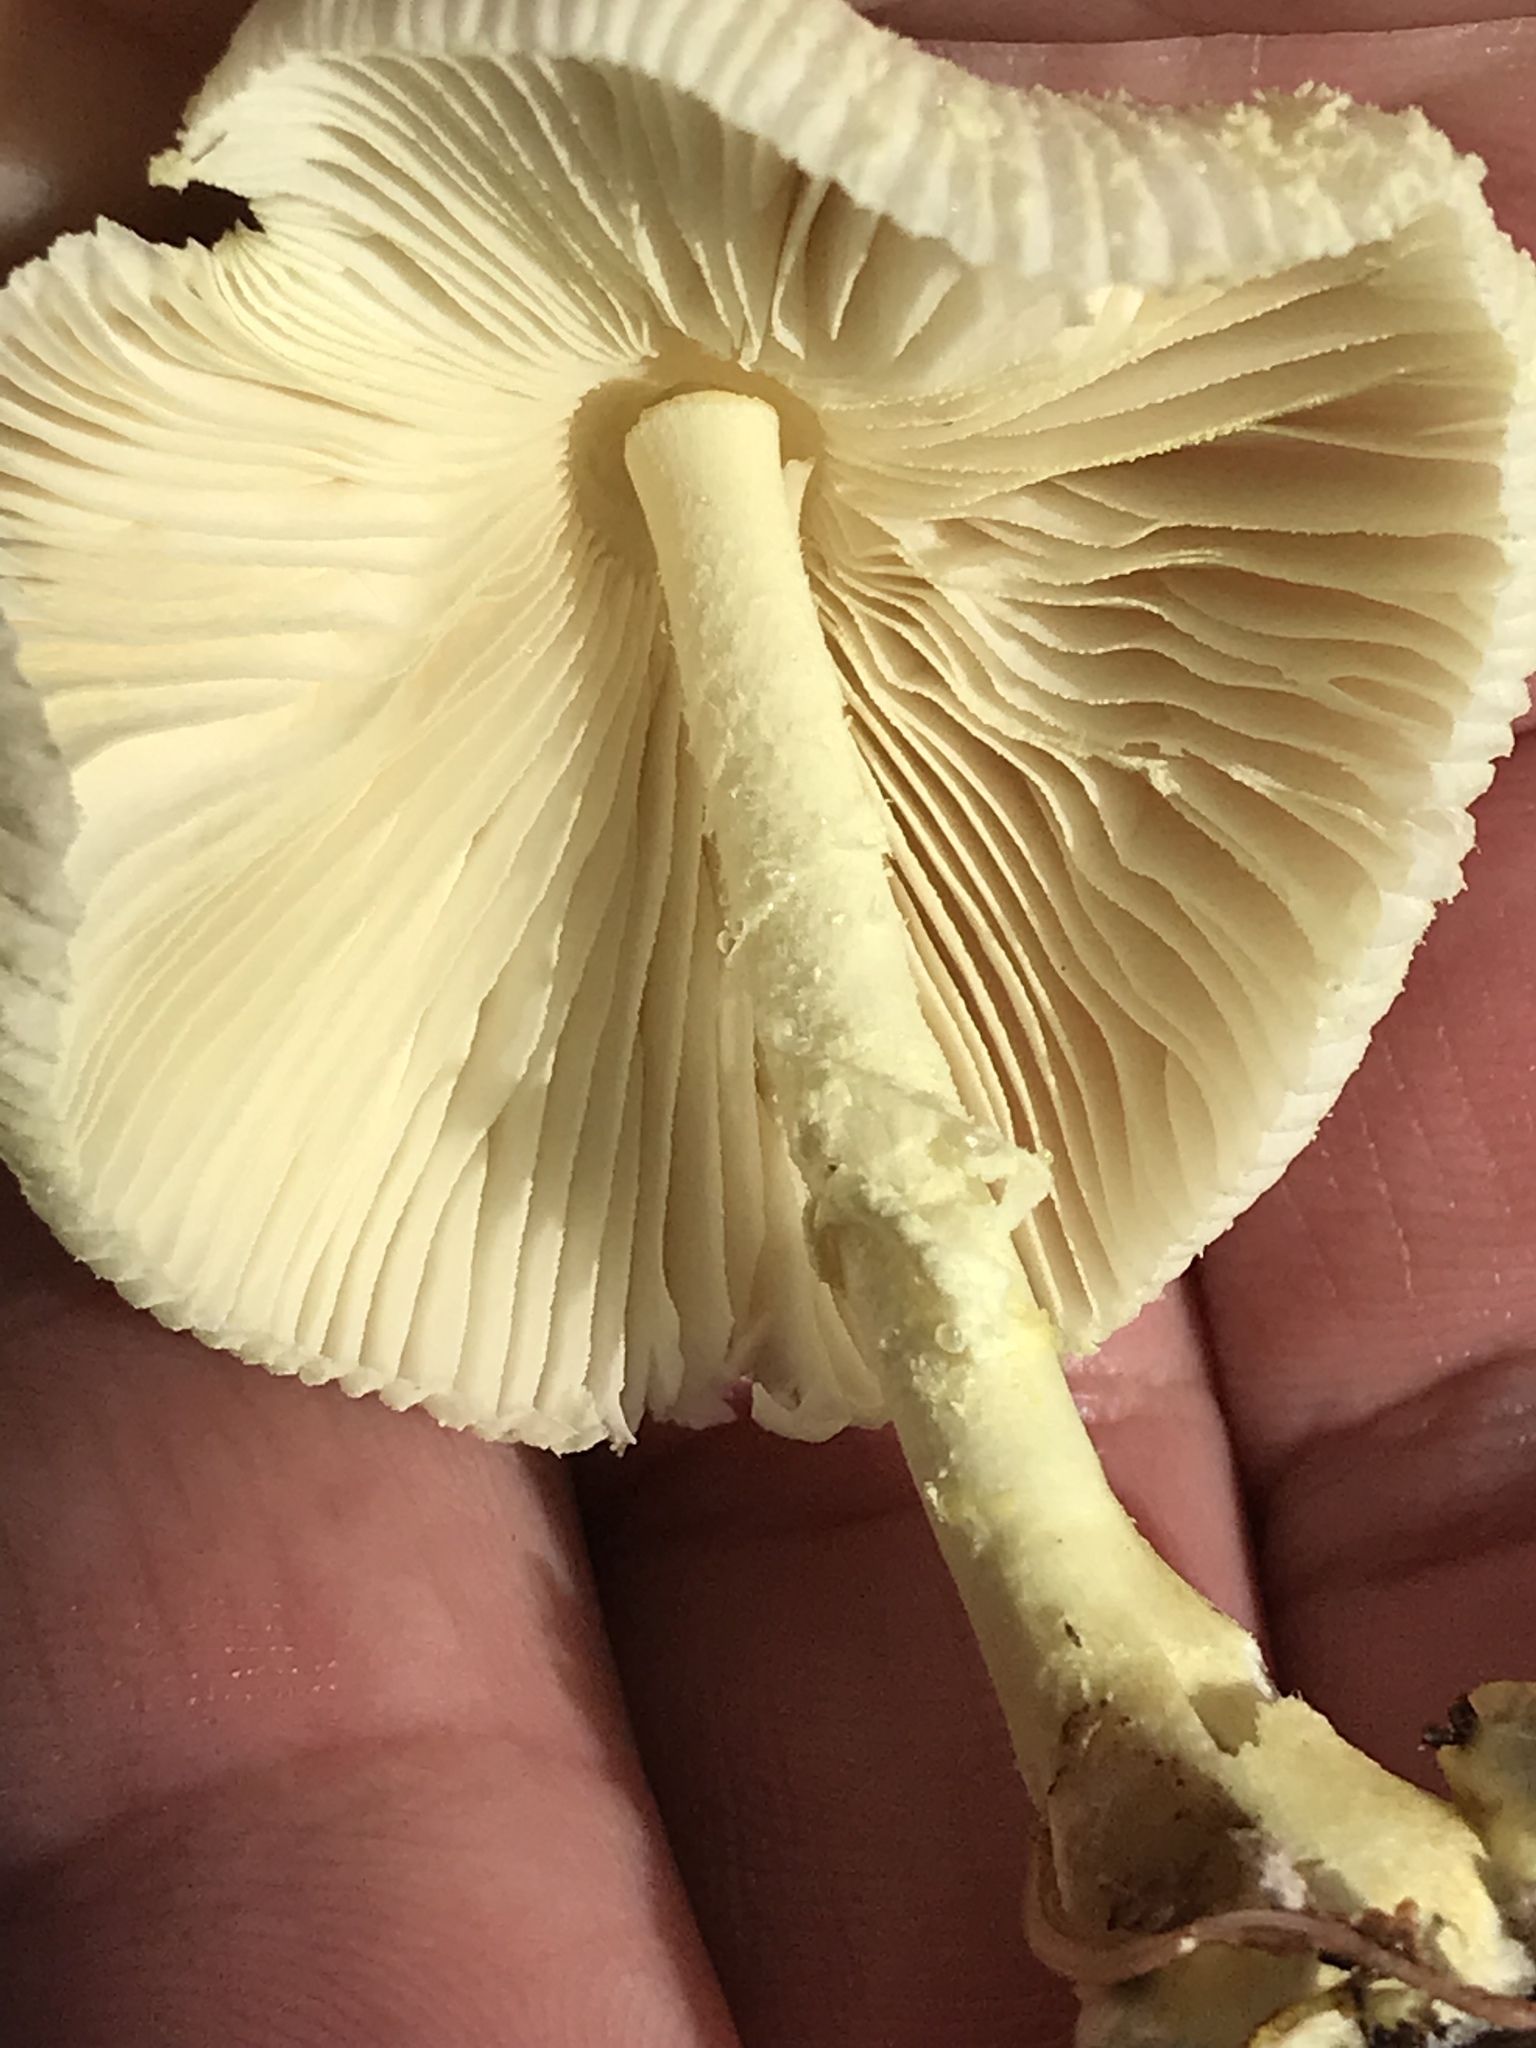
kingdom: Fungi
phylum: Basidiomycota
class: Agaricomycetes
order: Agaricales
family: Agaricaceae
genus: Leucocoprinus
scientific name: Leucocoprinus birnbaumii
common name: Plantpot dapperling
